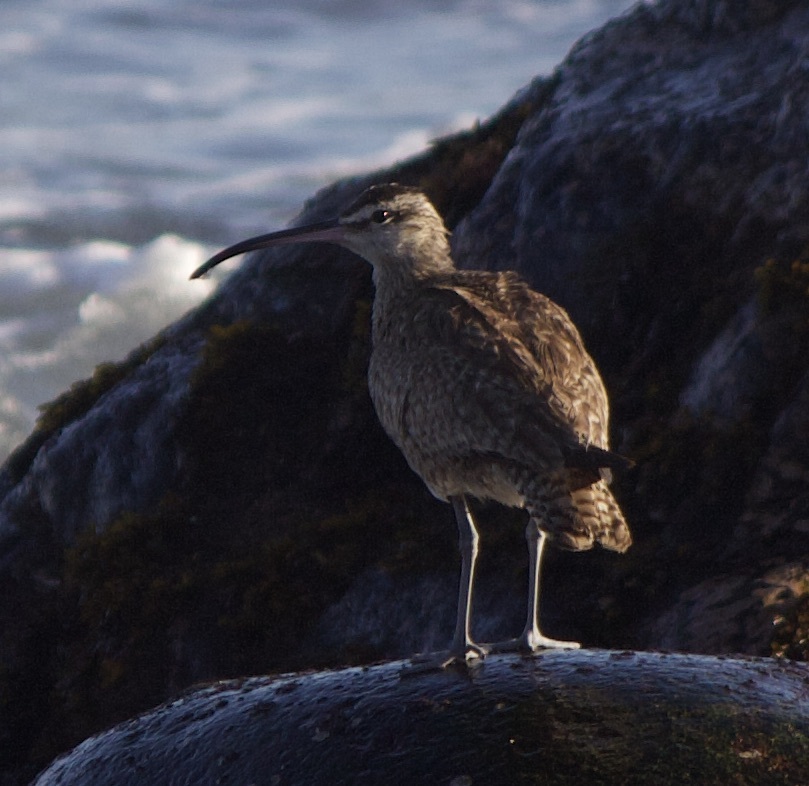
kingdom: Animalia
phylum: Chordata
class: Aves
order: Charadriiformes
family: Scolopacidae
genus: Numenius
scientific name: Numenius phaeopus
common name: Whimbrel
